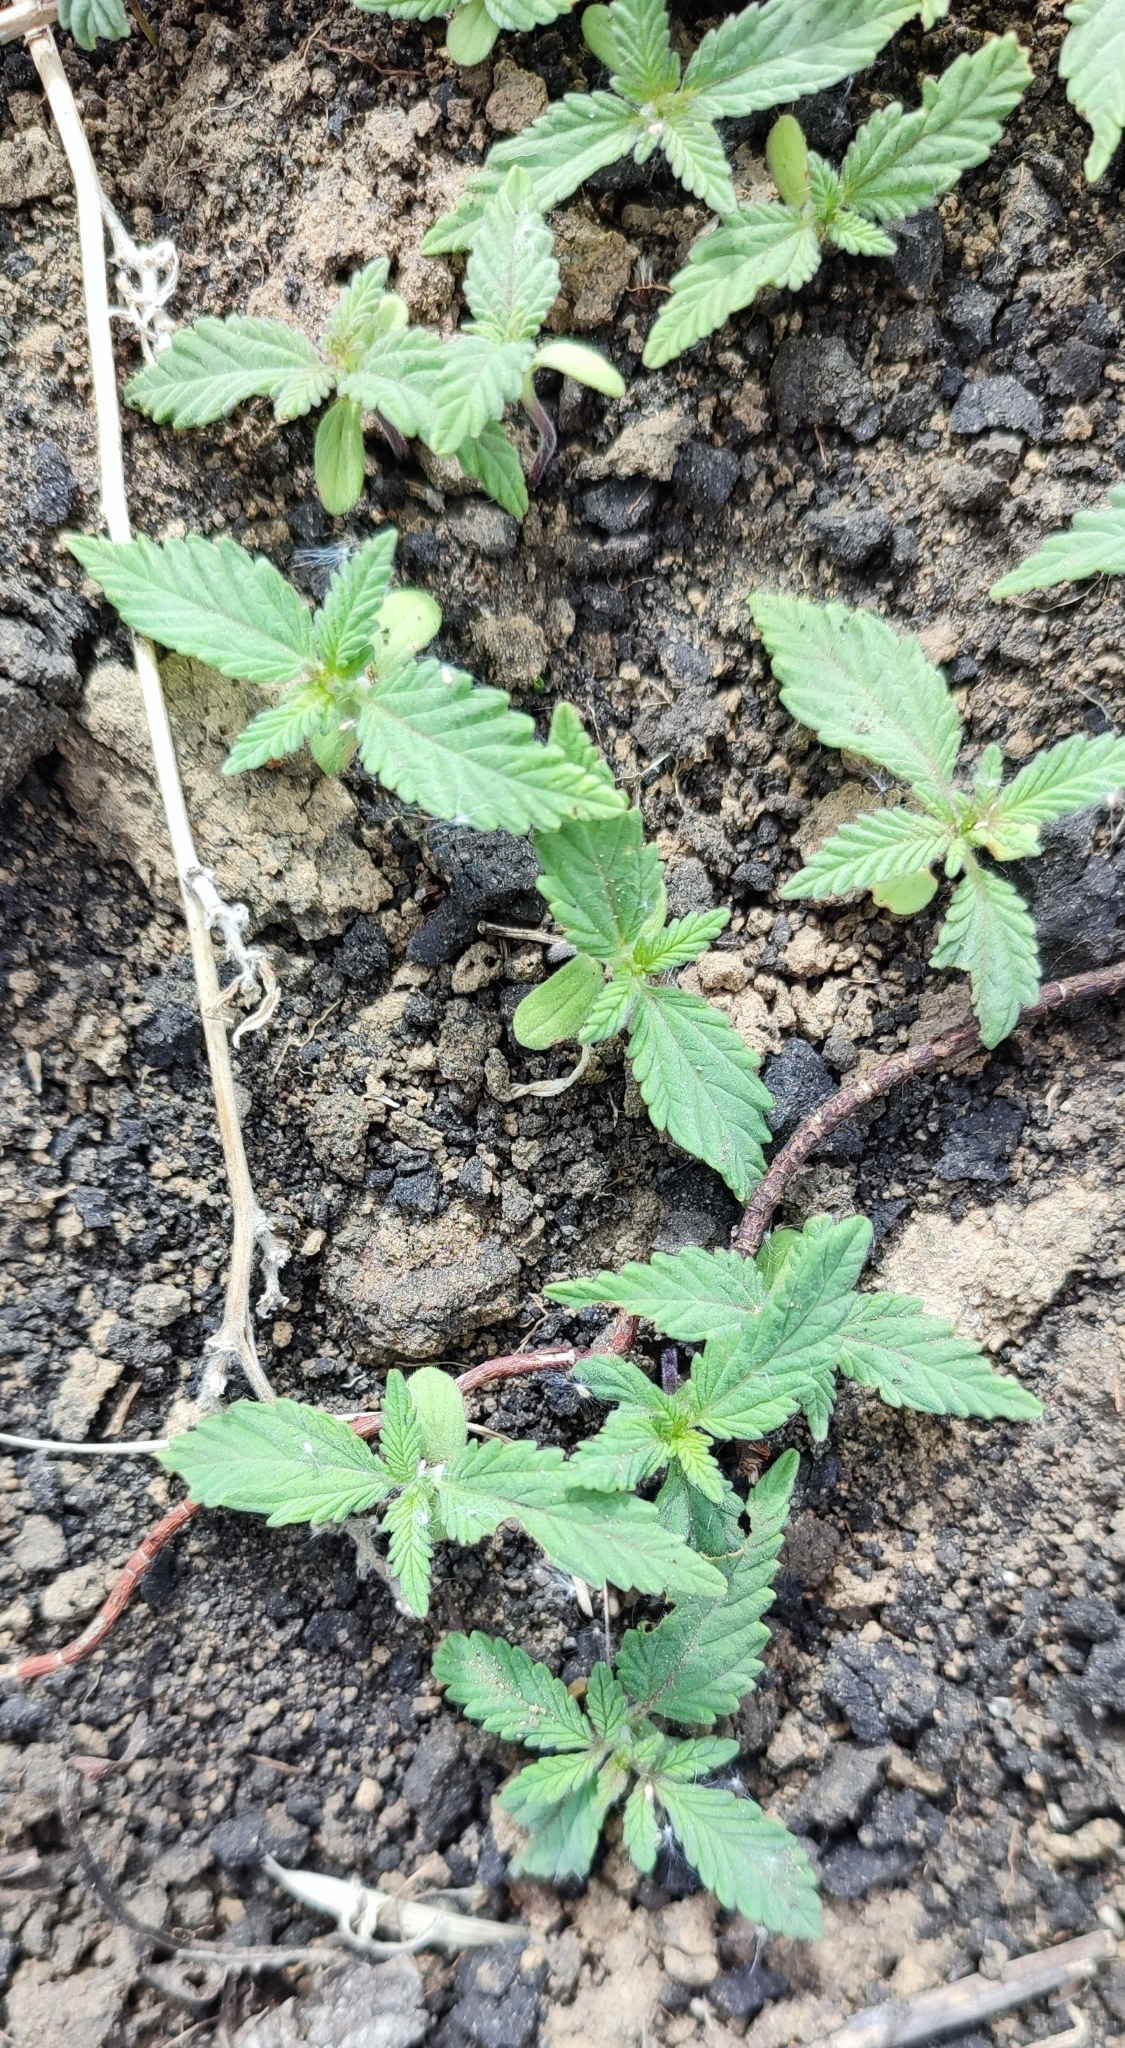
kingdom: Plantae
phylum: Tracheophyta
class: Magnoliopsida
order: Rosales
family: Cannabaceae
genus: Cannabis
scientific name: Cannabis sativa
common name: Hemp
